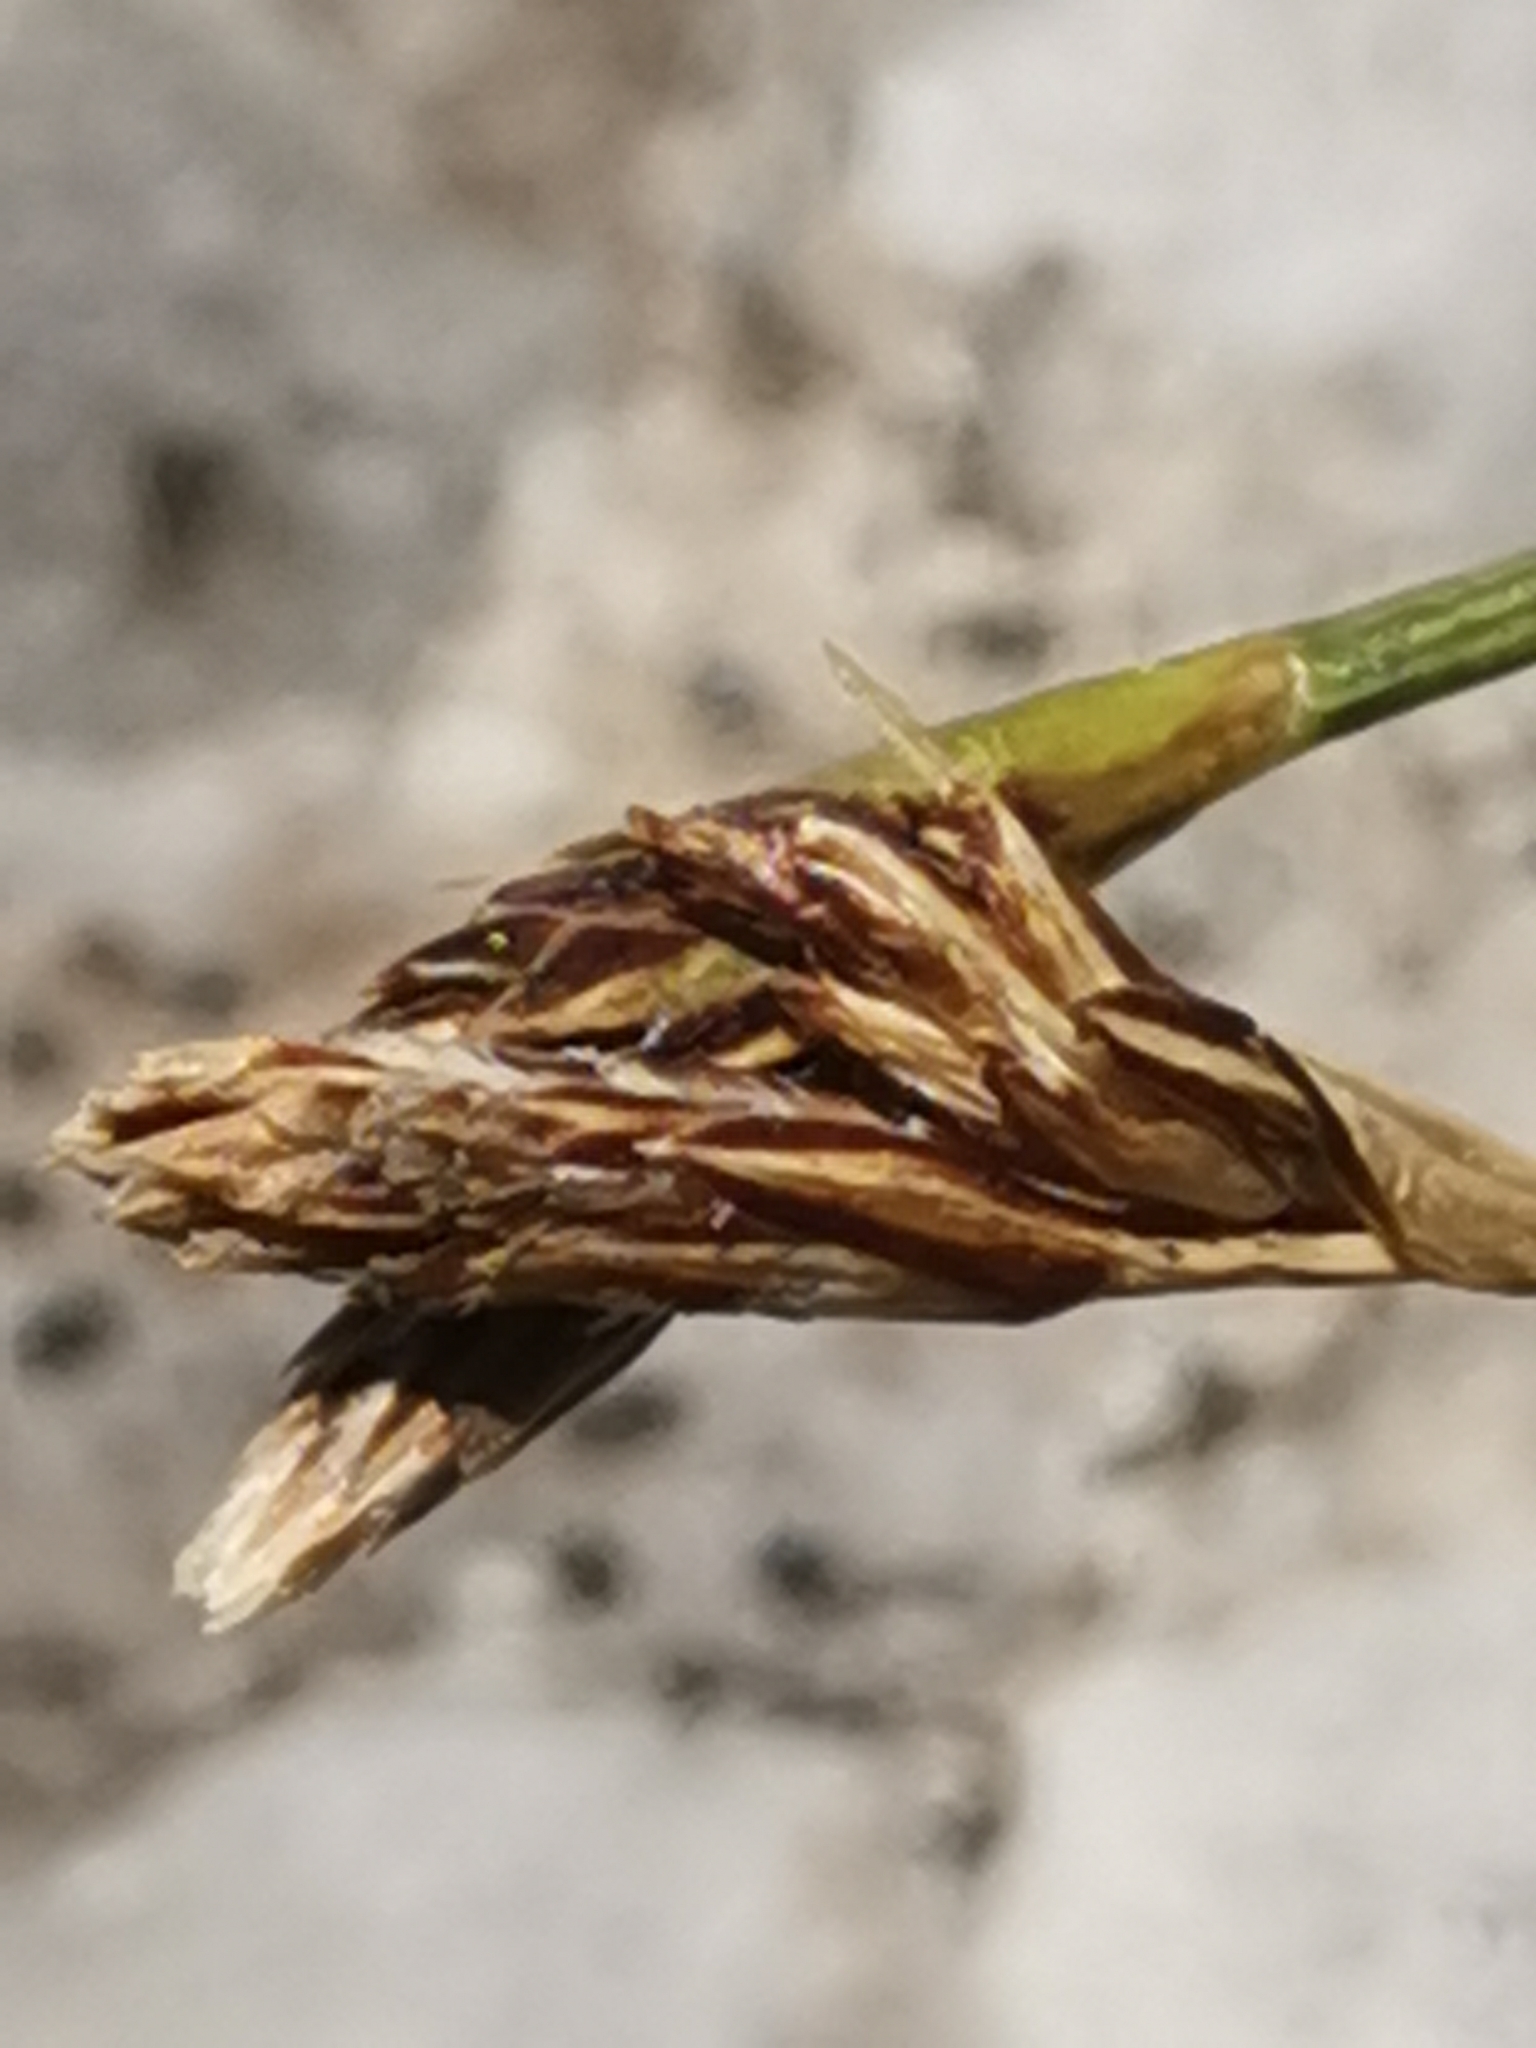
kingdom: Plantae
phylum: Tracheophyta
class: Liliopsida
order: Poales
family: Cyperaceae
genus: Carex
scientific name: Carex firma
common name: Dwarf pillow sedge
